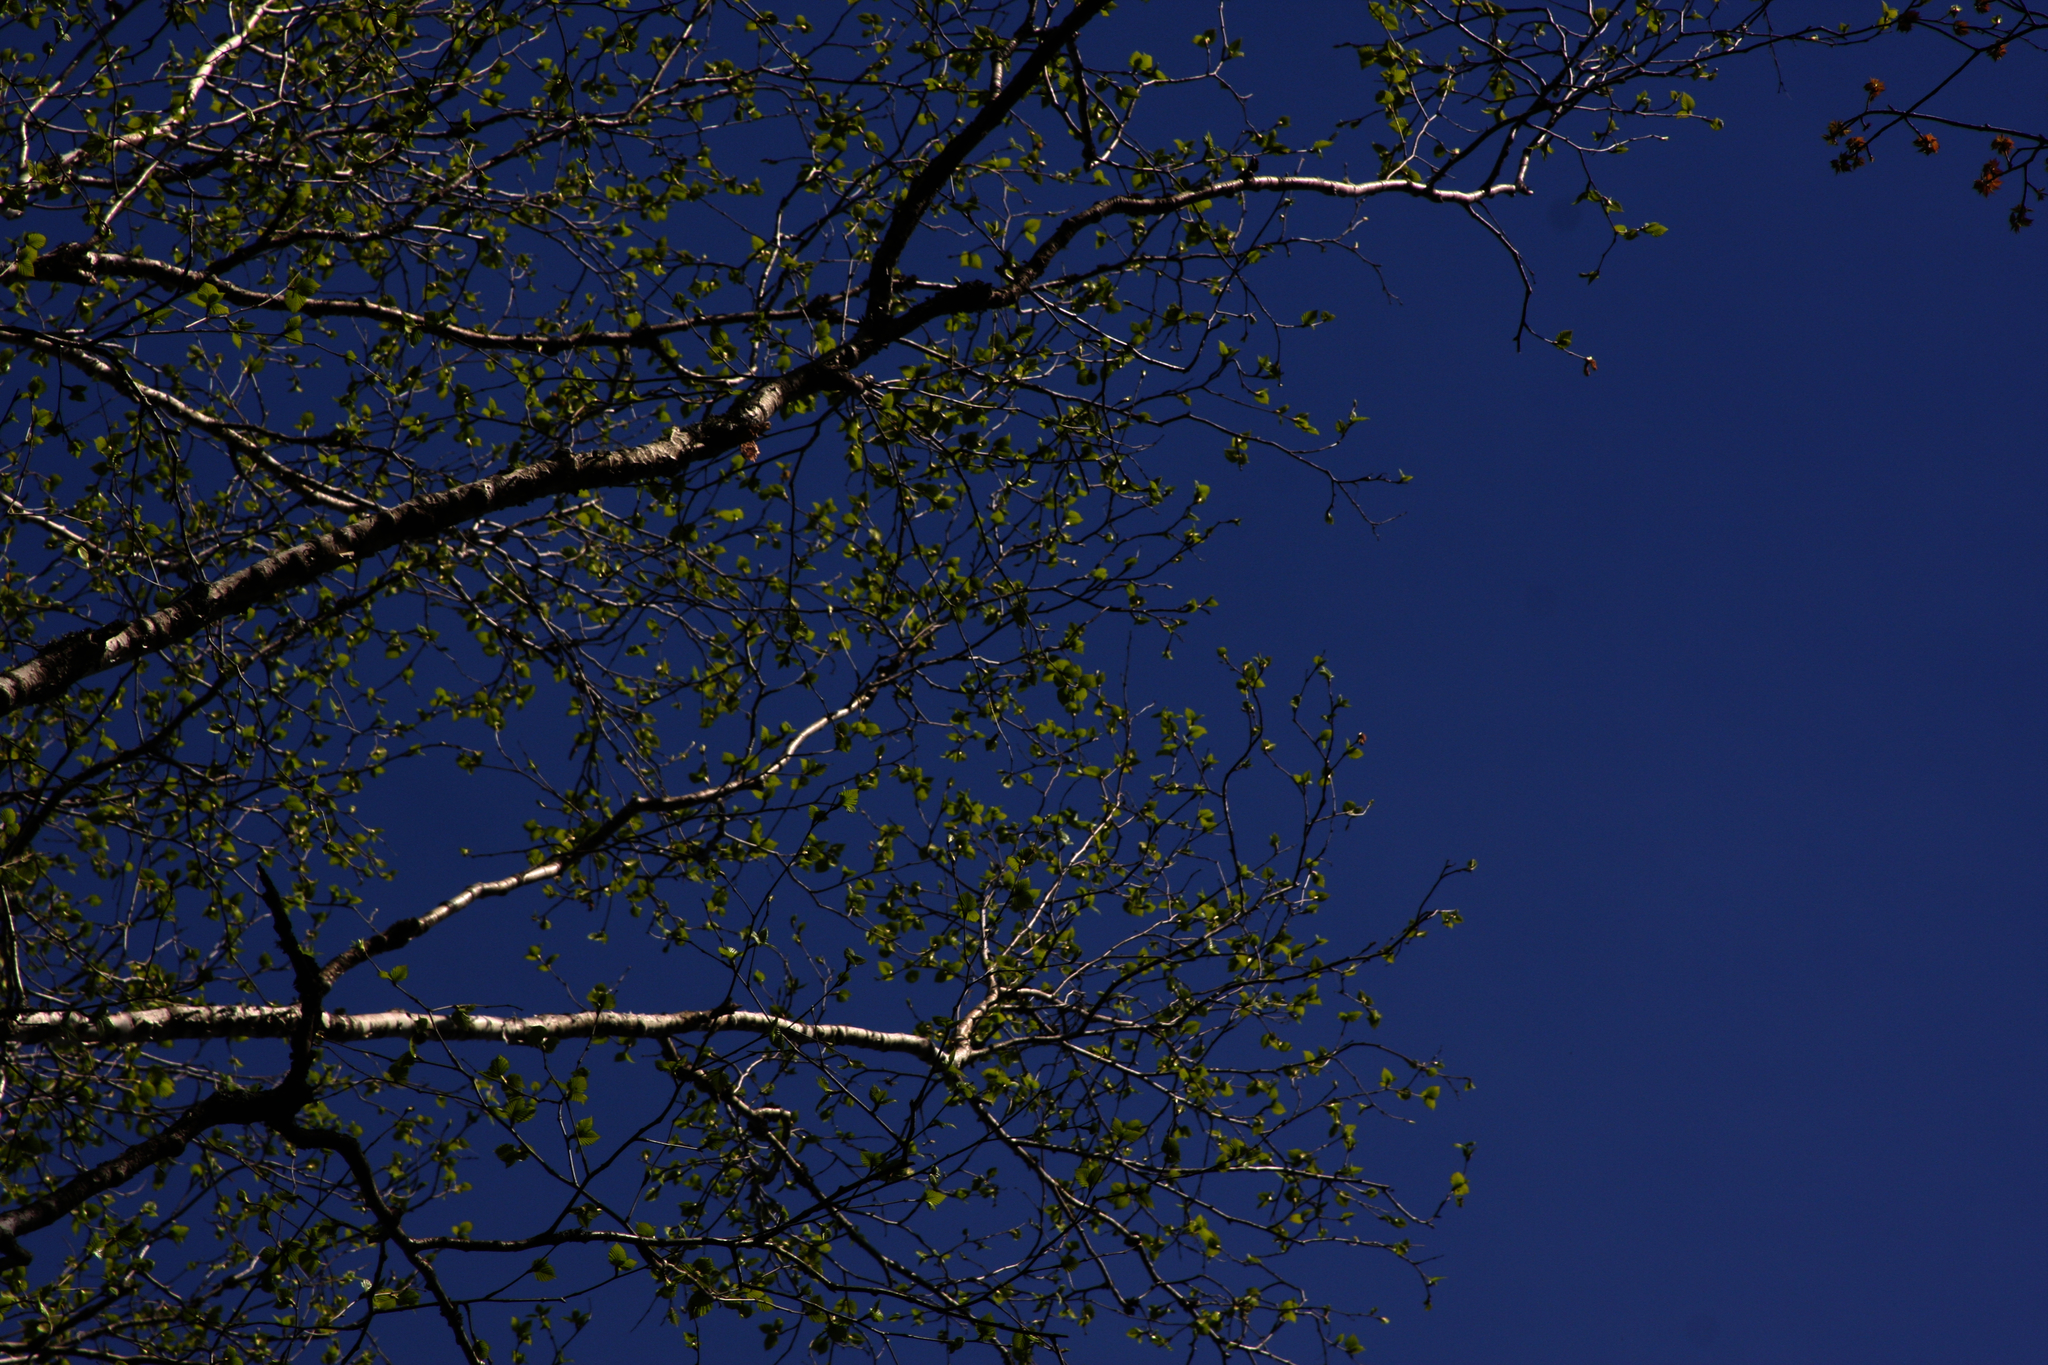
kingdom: Plantae
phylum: Tracheophyta
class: Magnoliopsida
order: Fagales
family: Betulaceae
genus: Betula
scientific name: Betula papyrifera
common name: Paper birch
